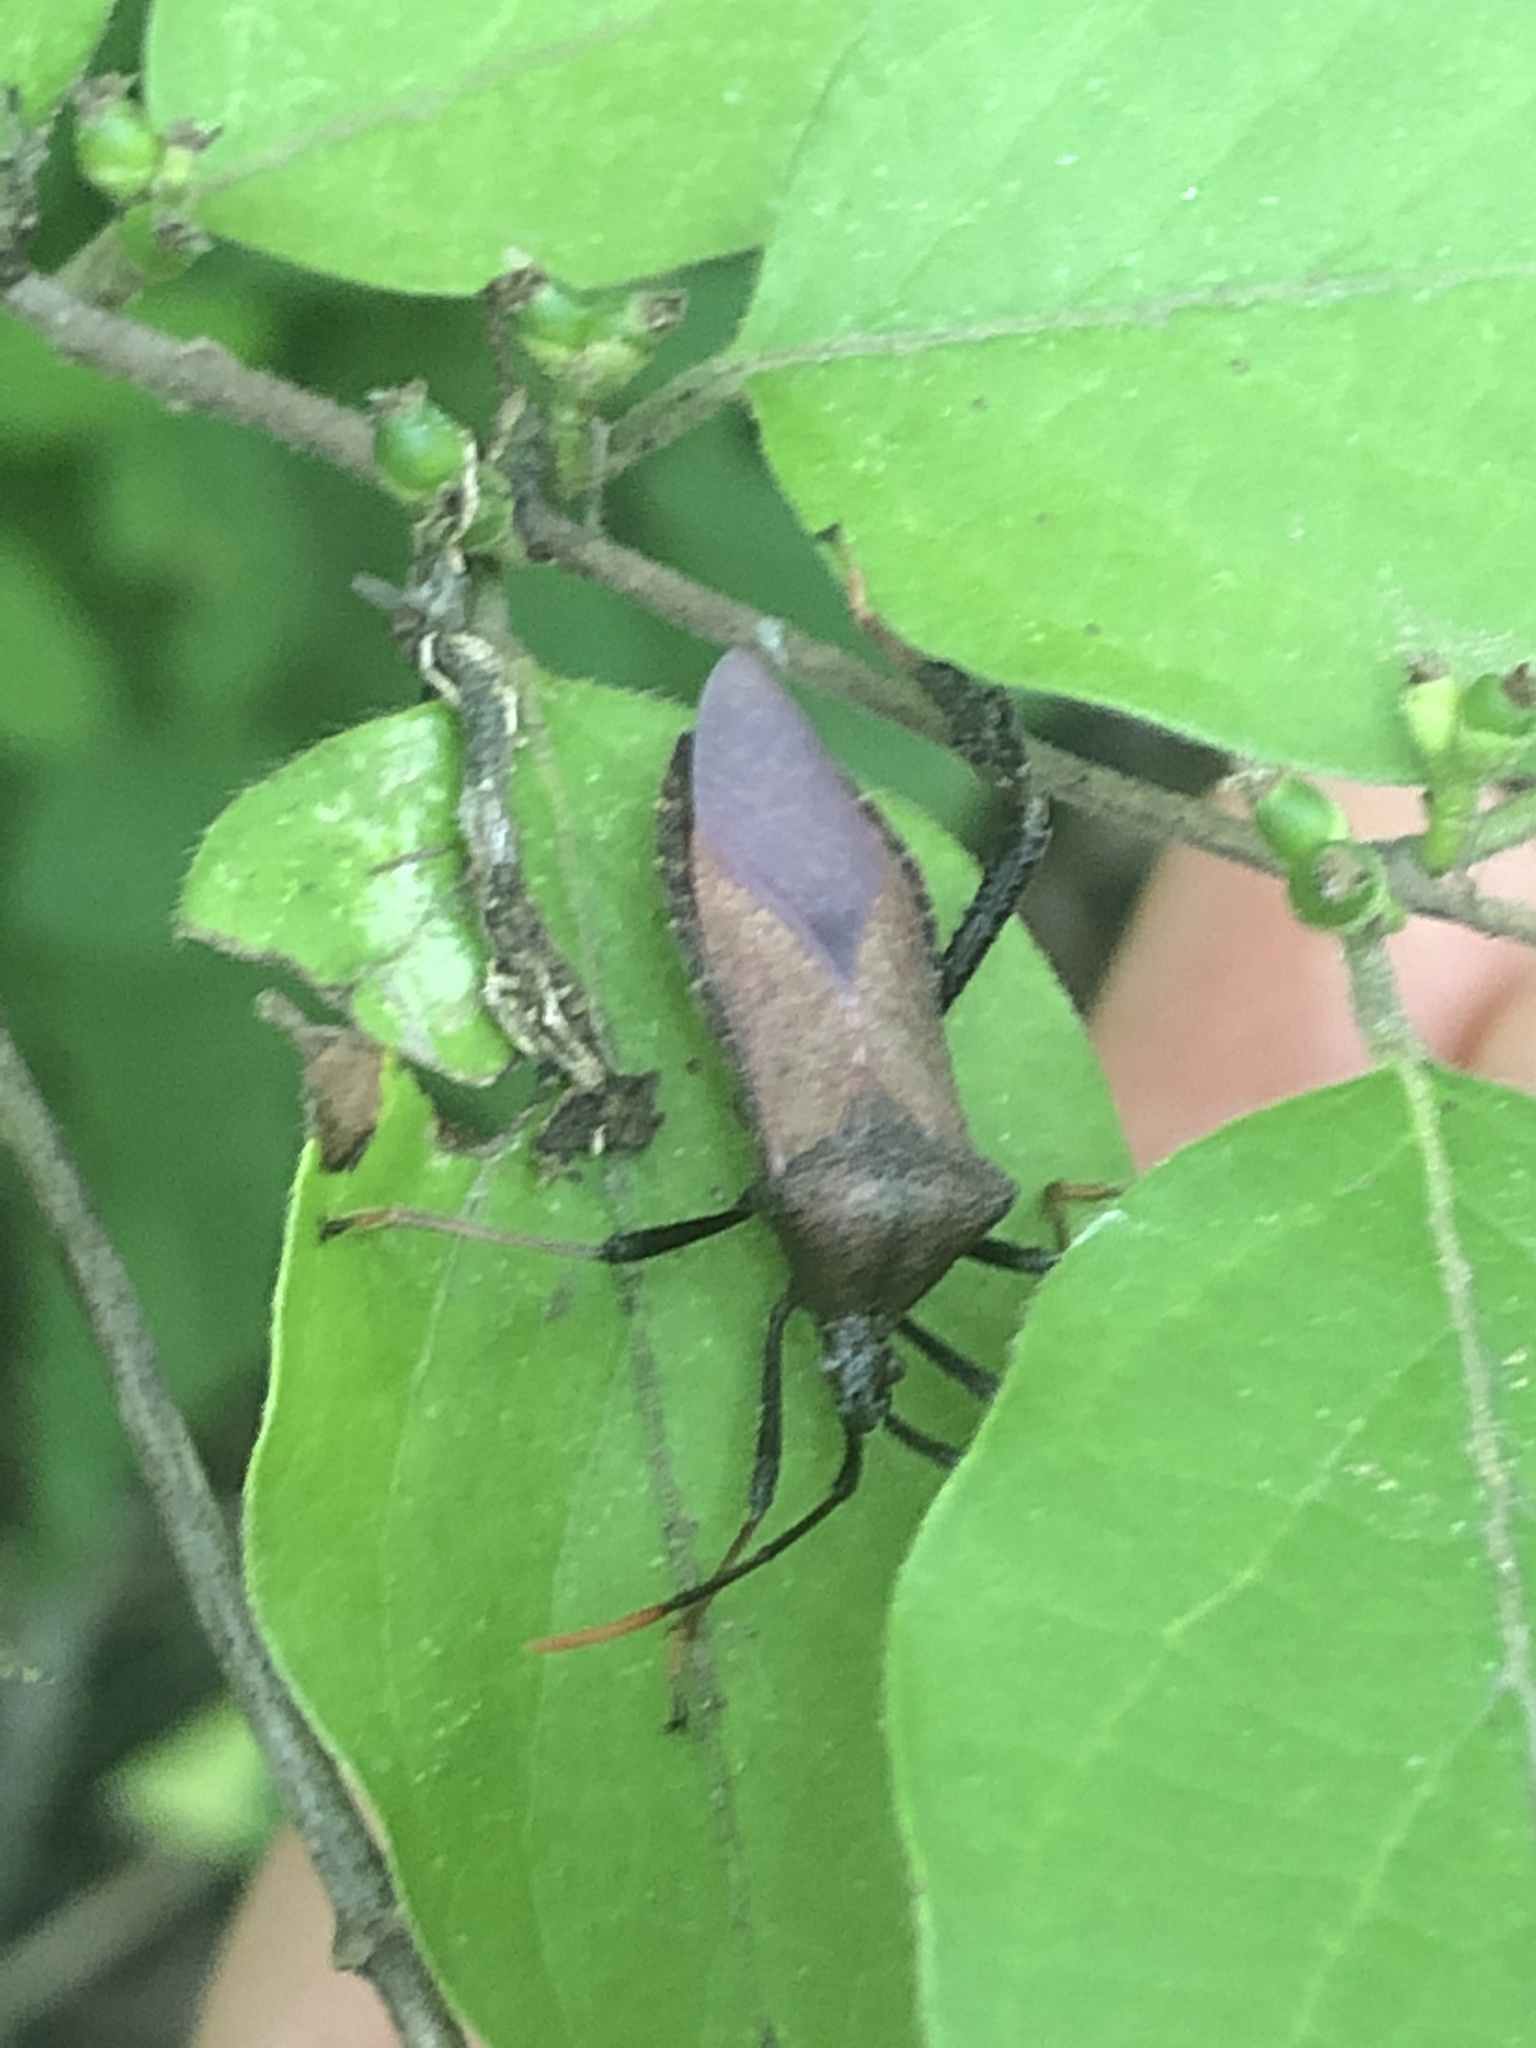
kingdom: Animalia
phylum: Arthropoda
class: Insecta
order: Hemiptera
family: Coreidae
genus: Acanthocephala
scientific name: Acanthocephala terminalis
